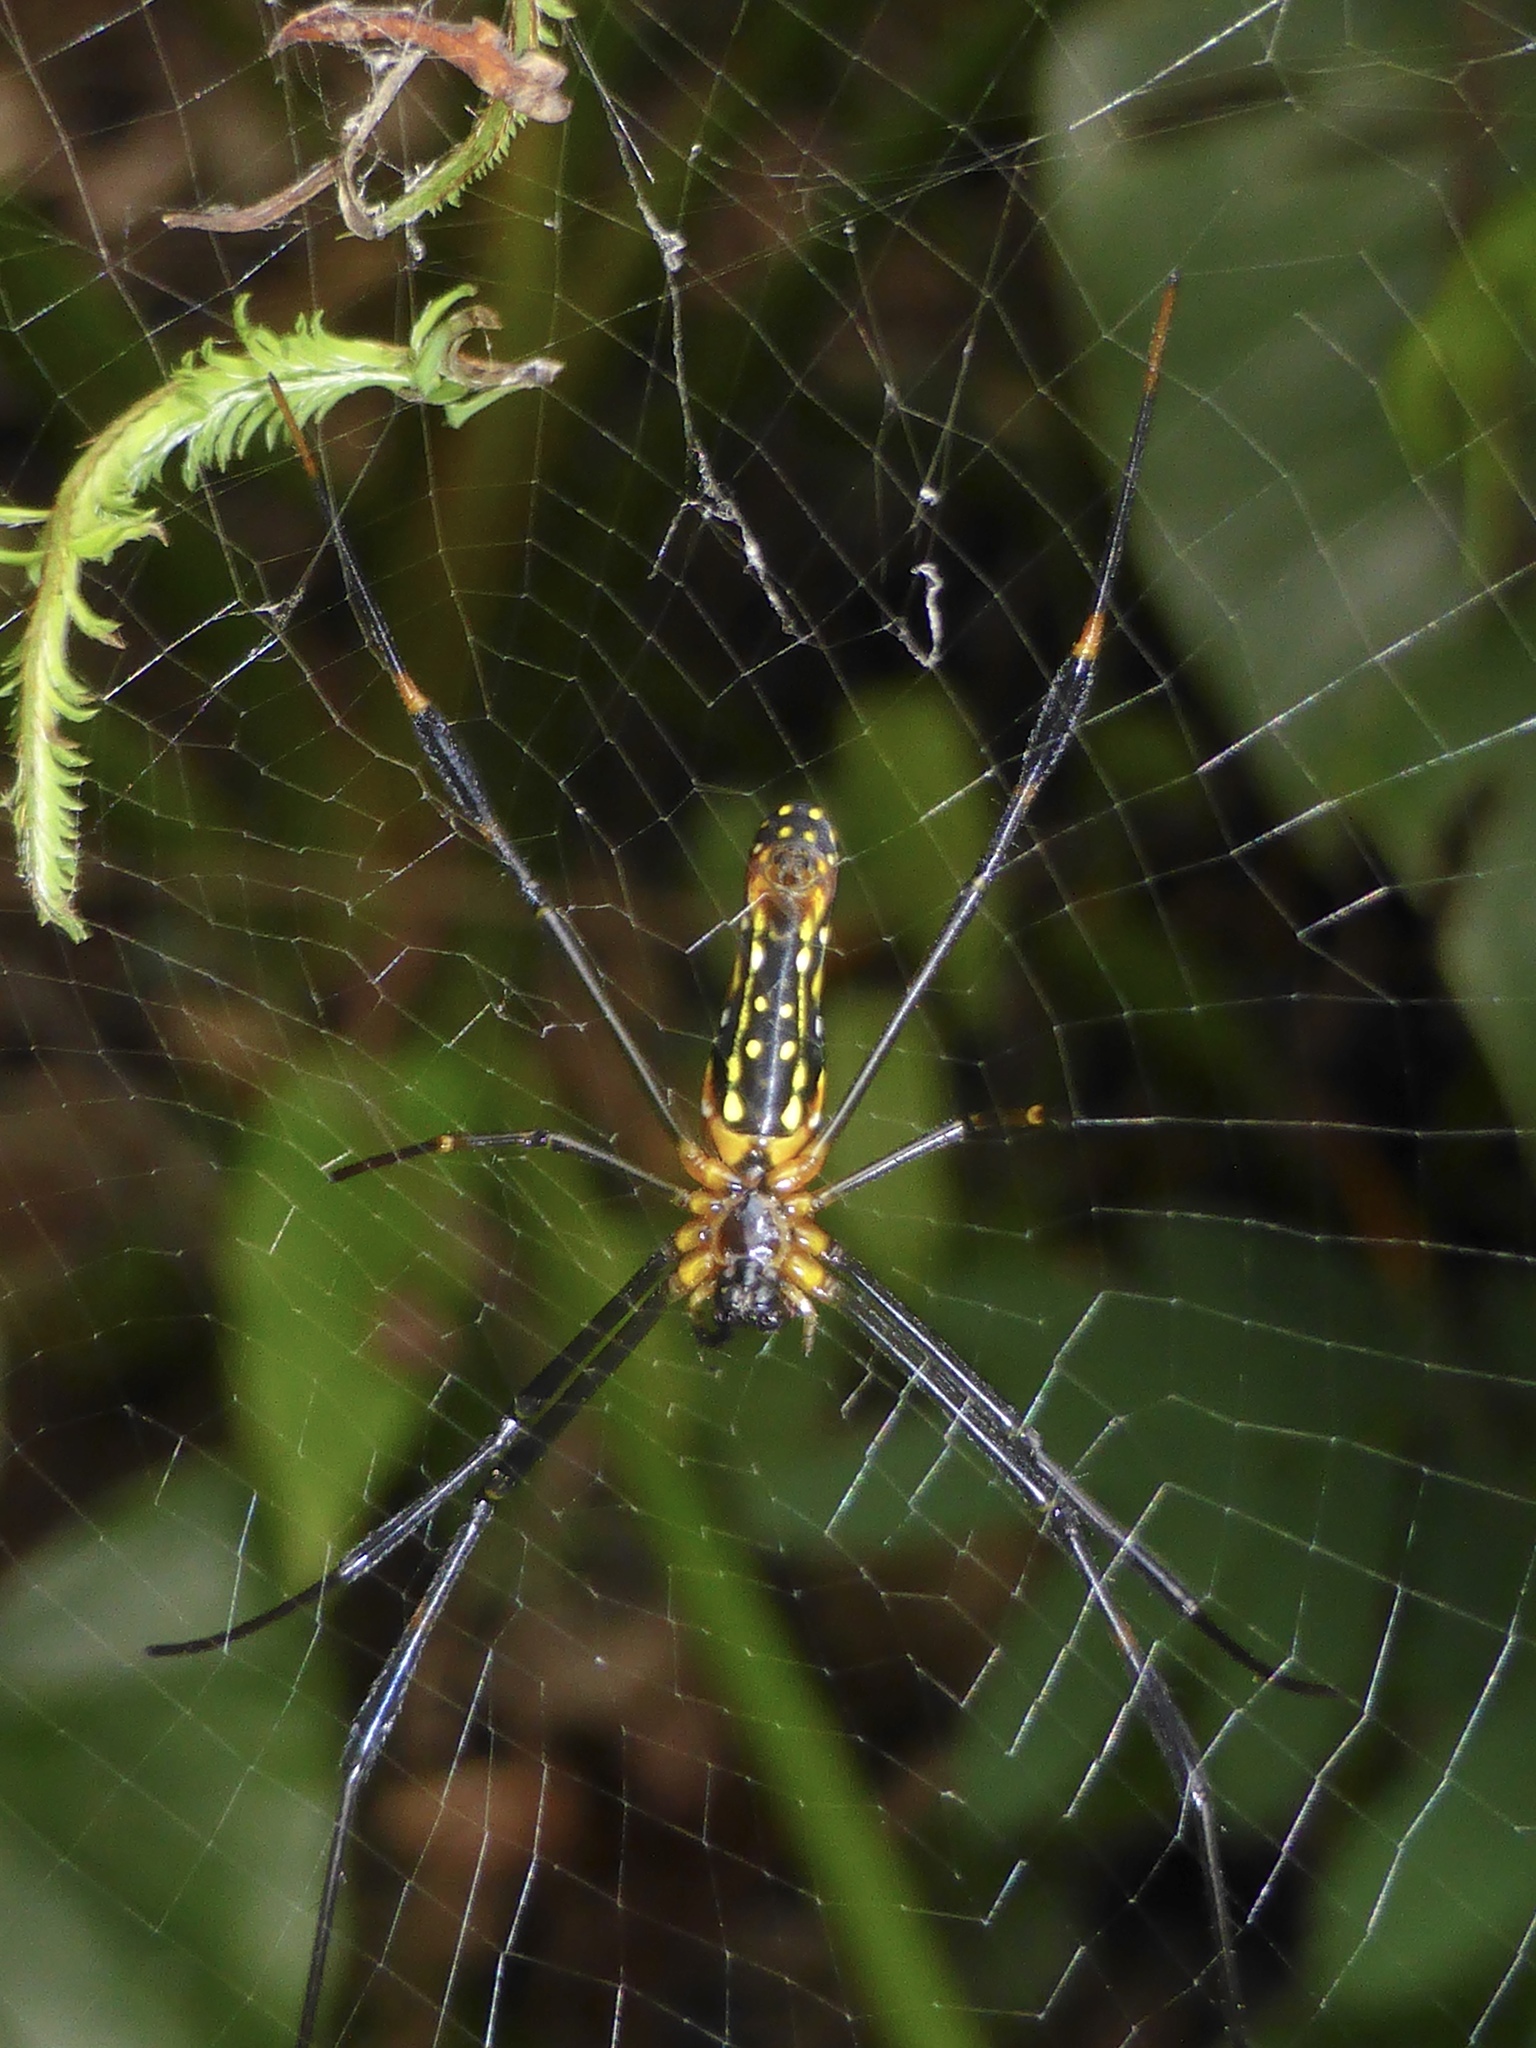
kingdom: Animalia
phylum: Arthropoda
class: Arachnida
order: Araneae
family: Araneidae
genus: Nephila
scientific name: Nephila pilipes
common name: Giant golden orb weaver
